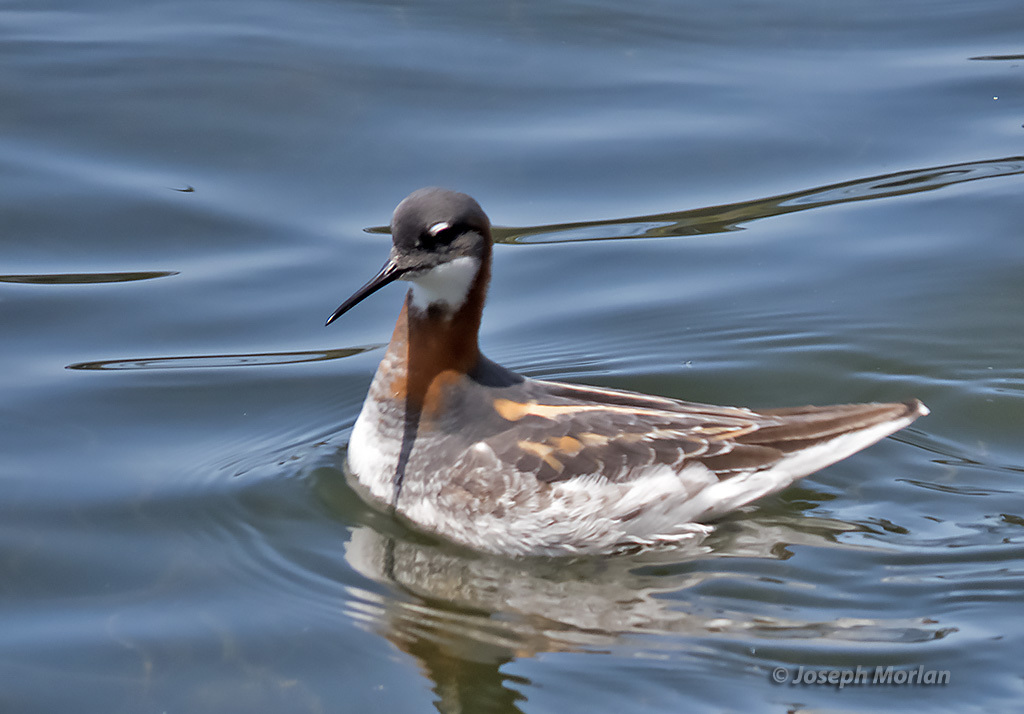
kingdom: Animalia
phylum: Chordata
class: Aves
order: Charadriiformes
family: Scolopacidae
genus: Phalaropus
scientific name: Phalaropus lobatus
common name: Red-necked phalarope
